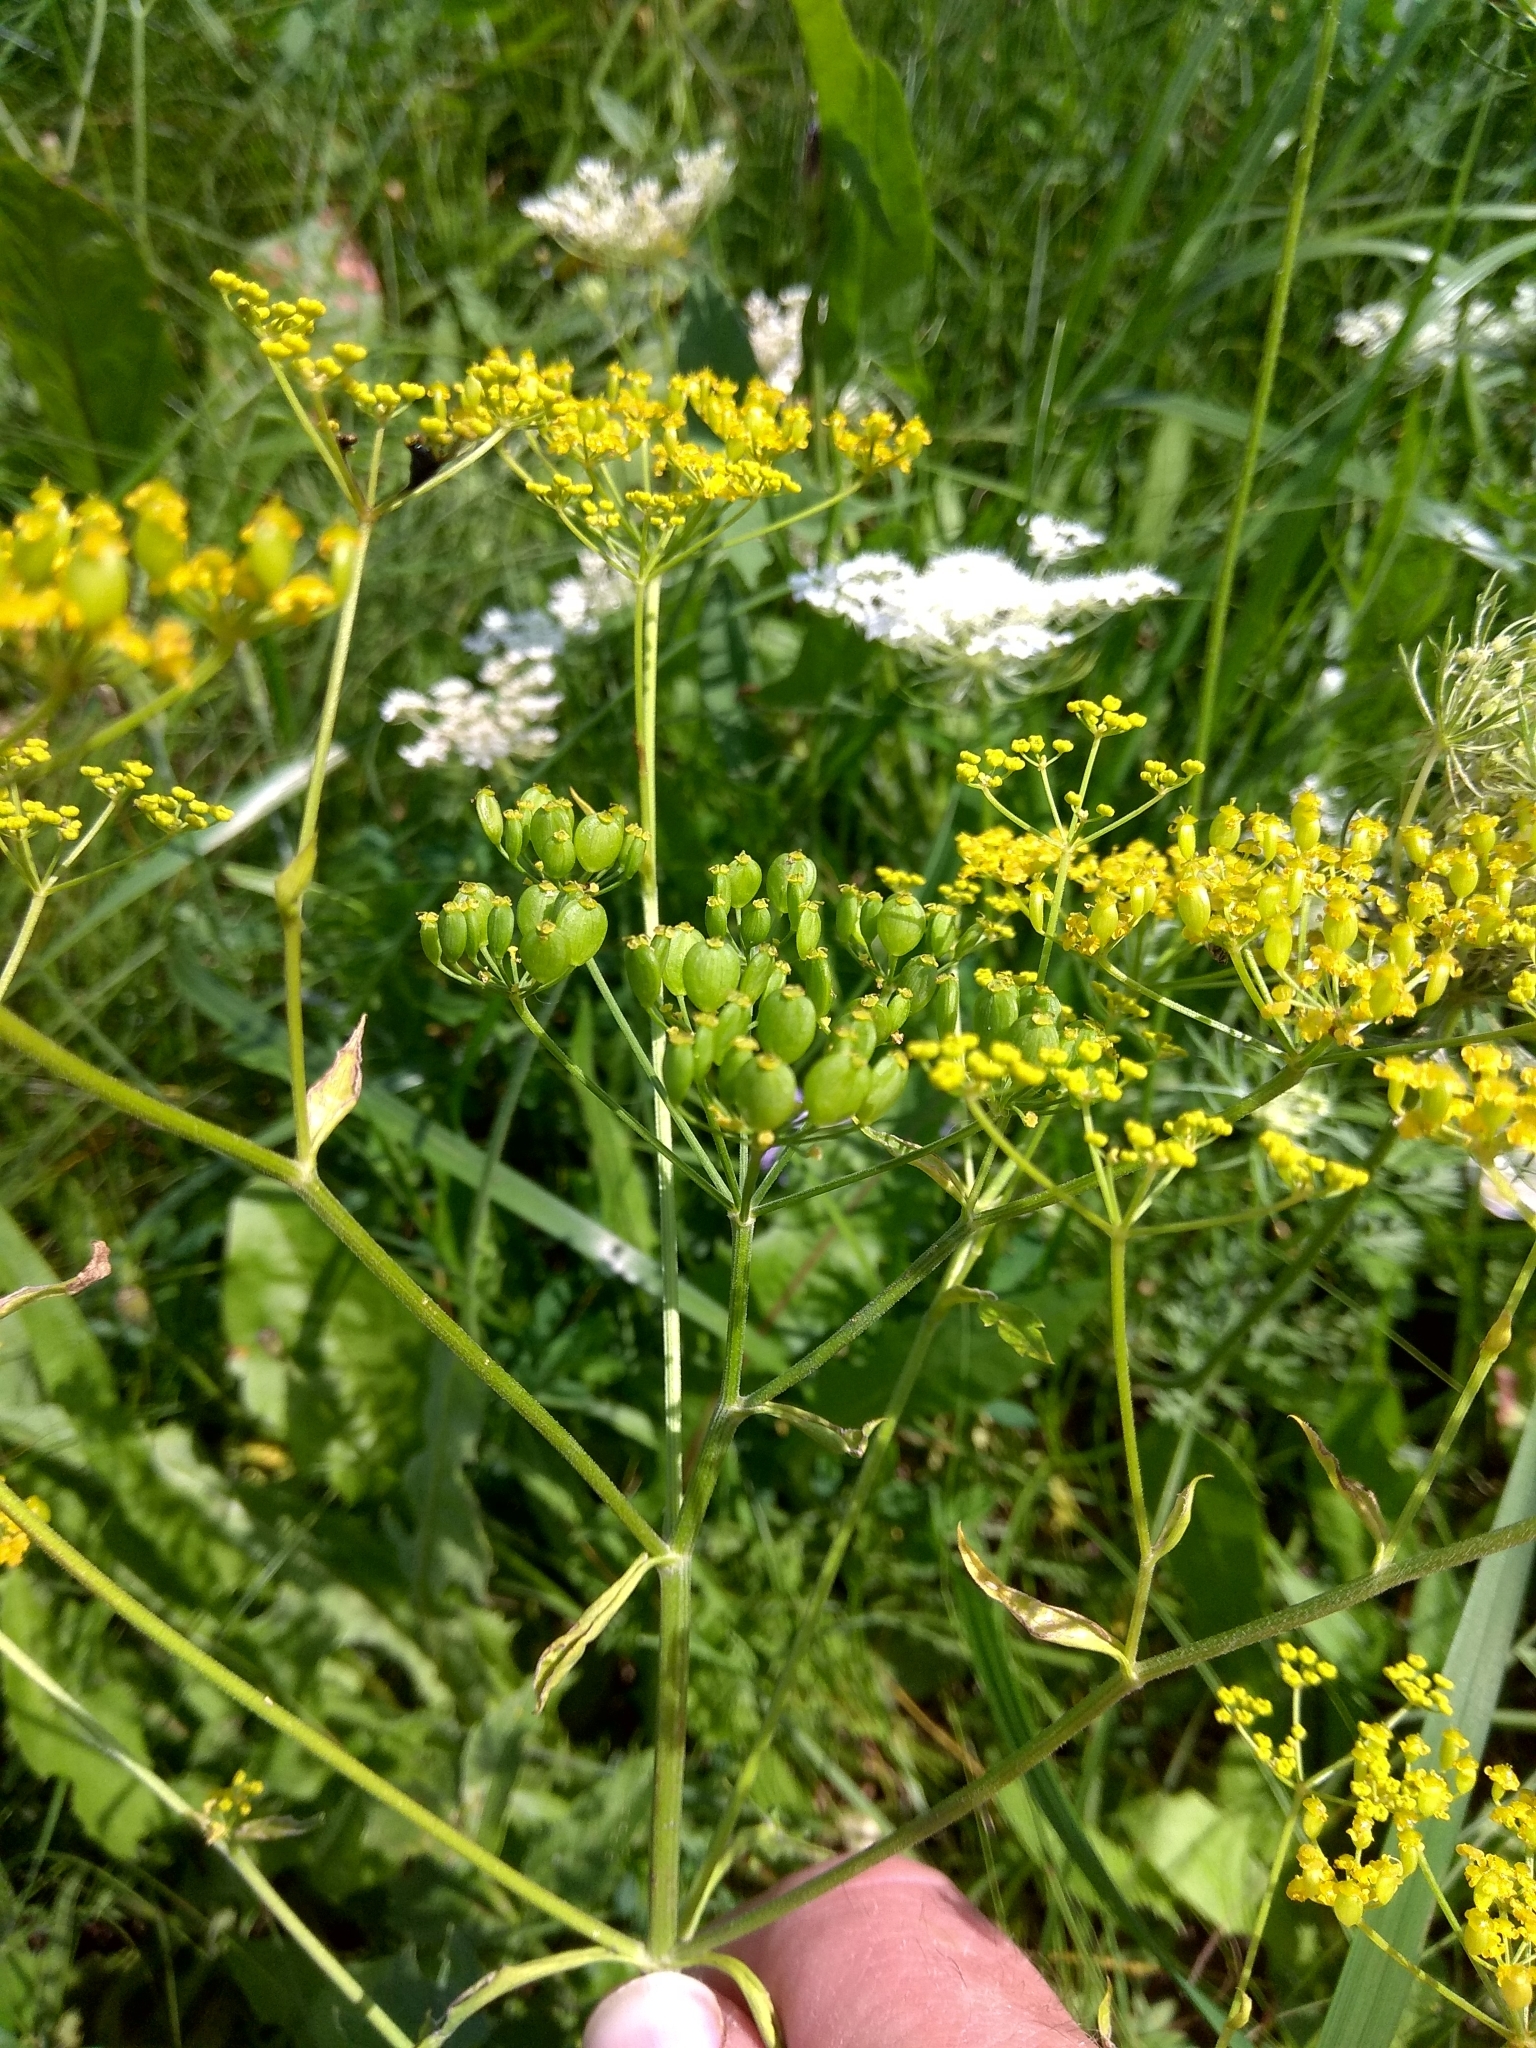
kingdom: Plantae
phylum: Tracheophyta
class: Magnoliopsida
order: Apiales
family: Apiaceae
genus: Pastinaca
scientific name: Pastinaca sativa
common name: Wild parsnip
